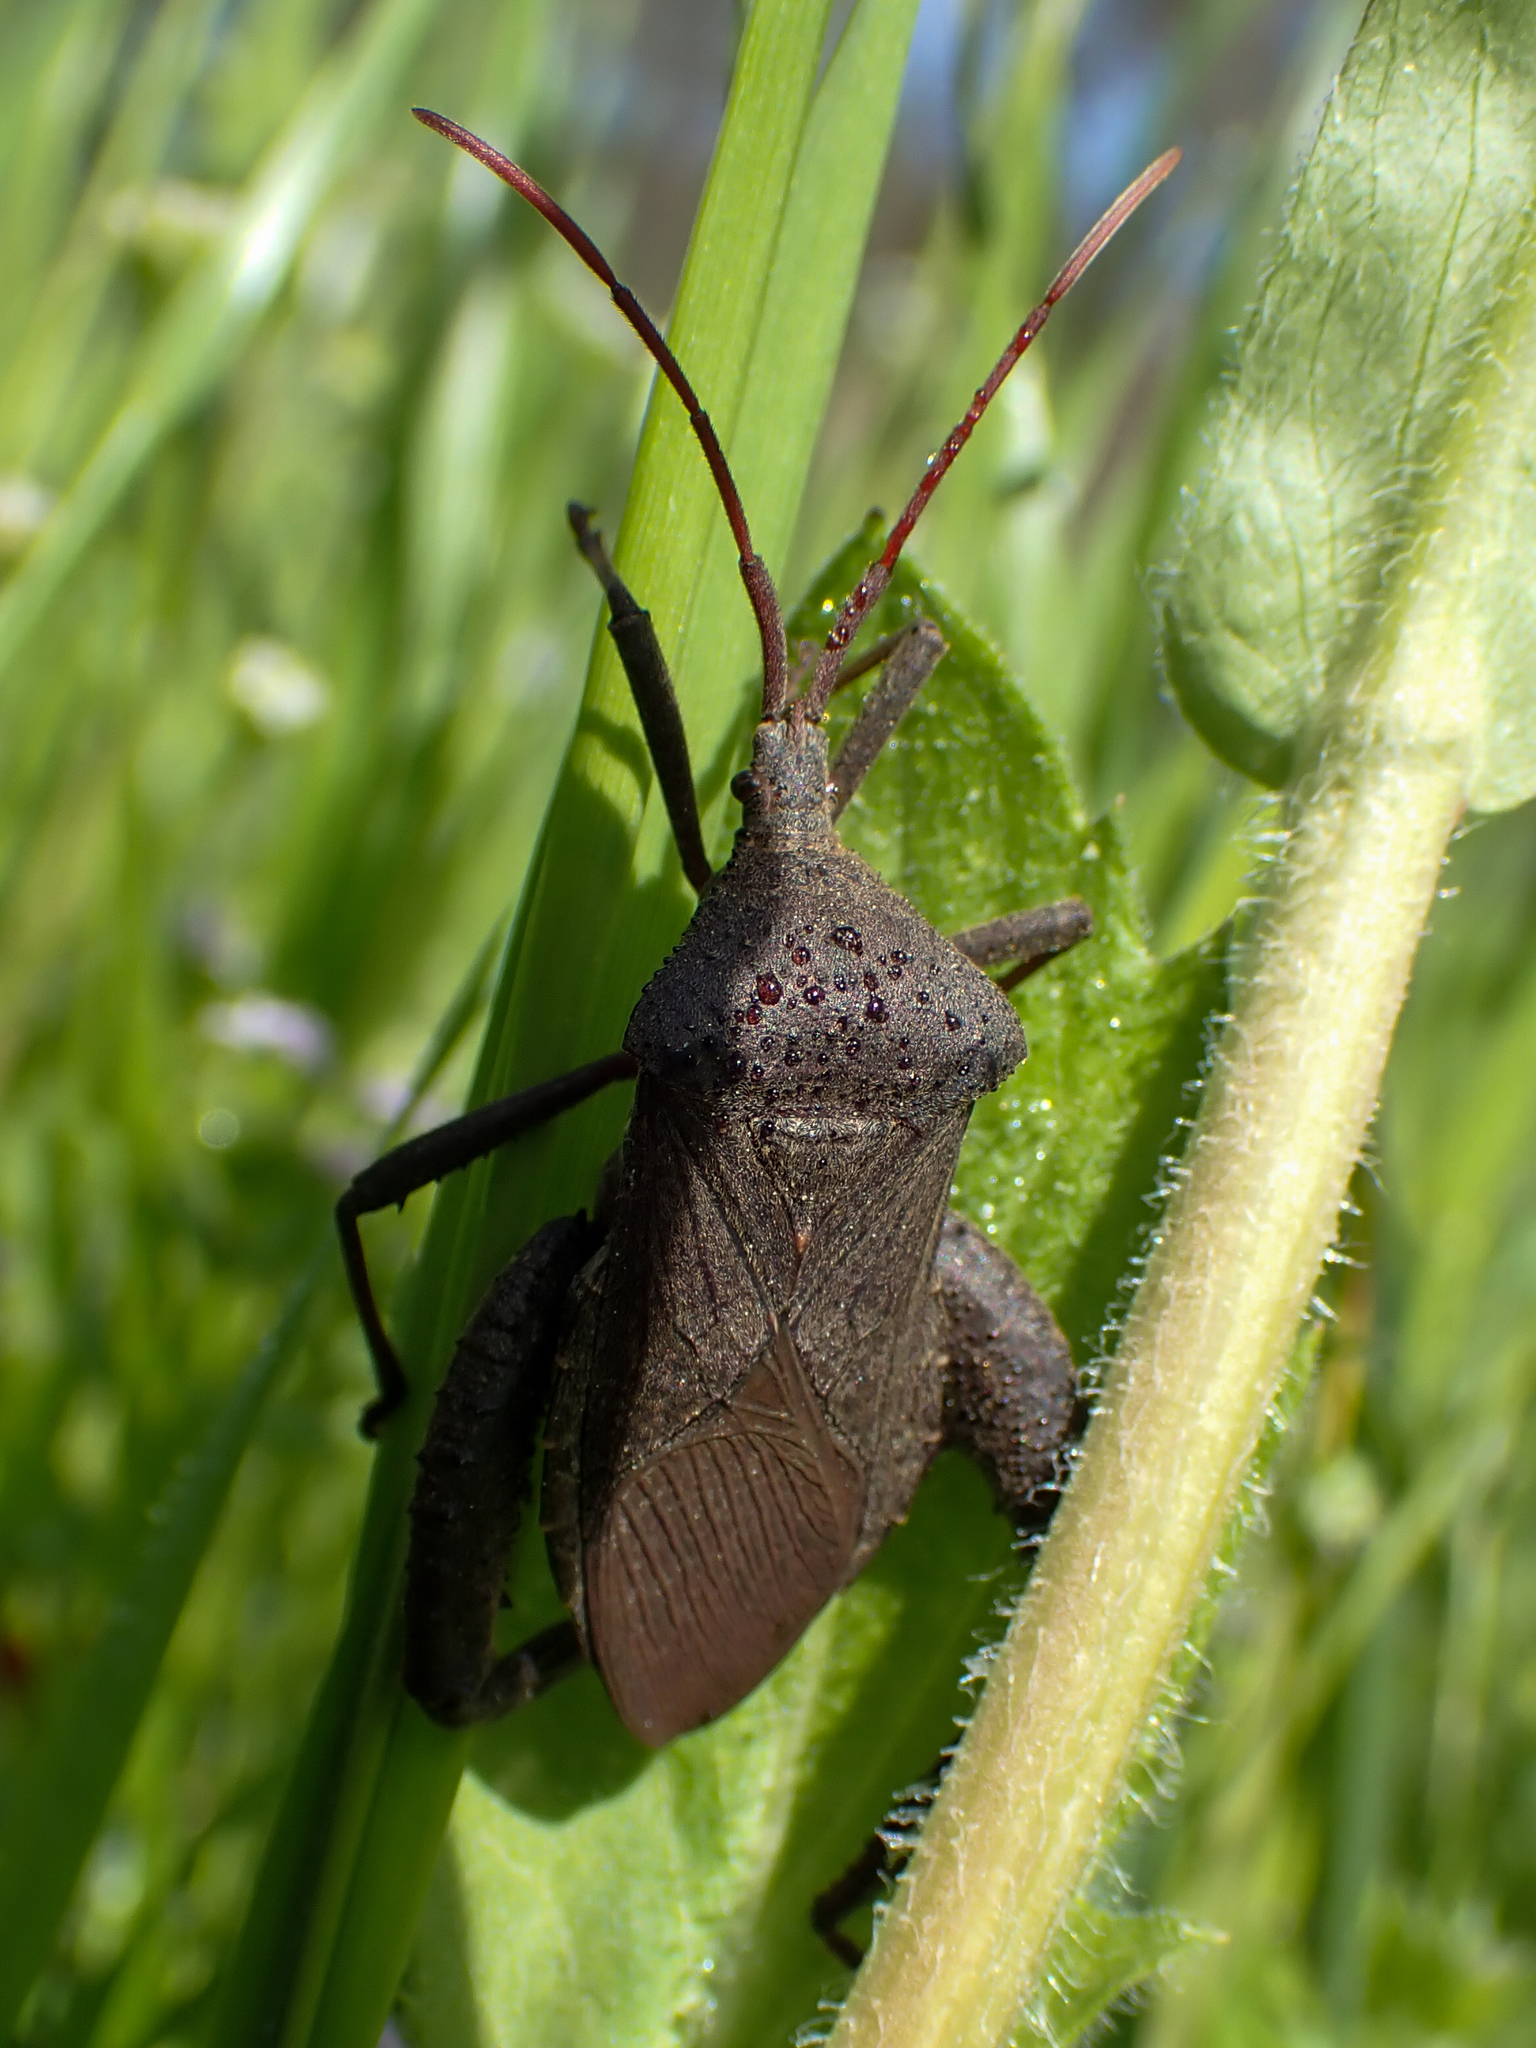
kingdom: Animalia
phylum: Arthropoda
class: Insecta
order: Hemiptera
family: Coreidae
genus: Acanthocephala
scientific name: Acanthocephala femorata
